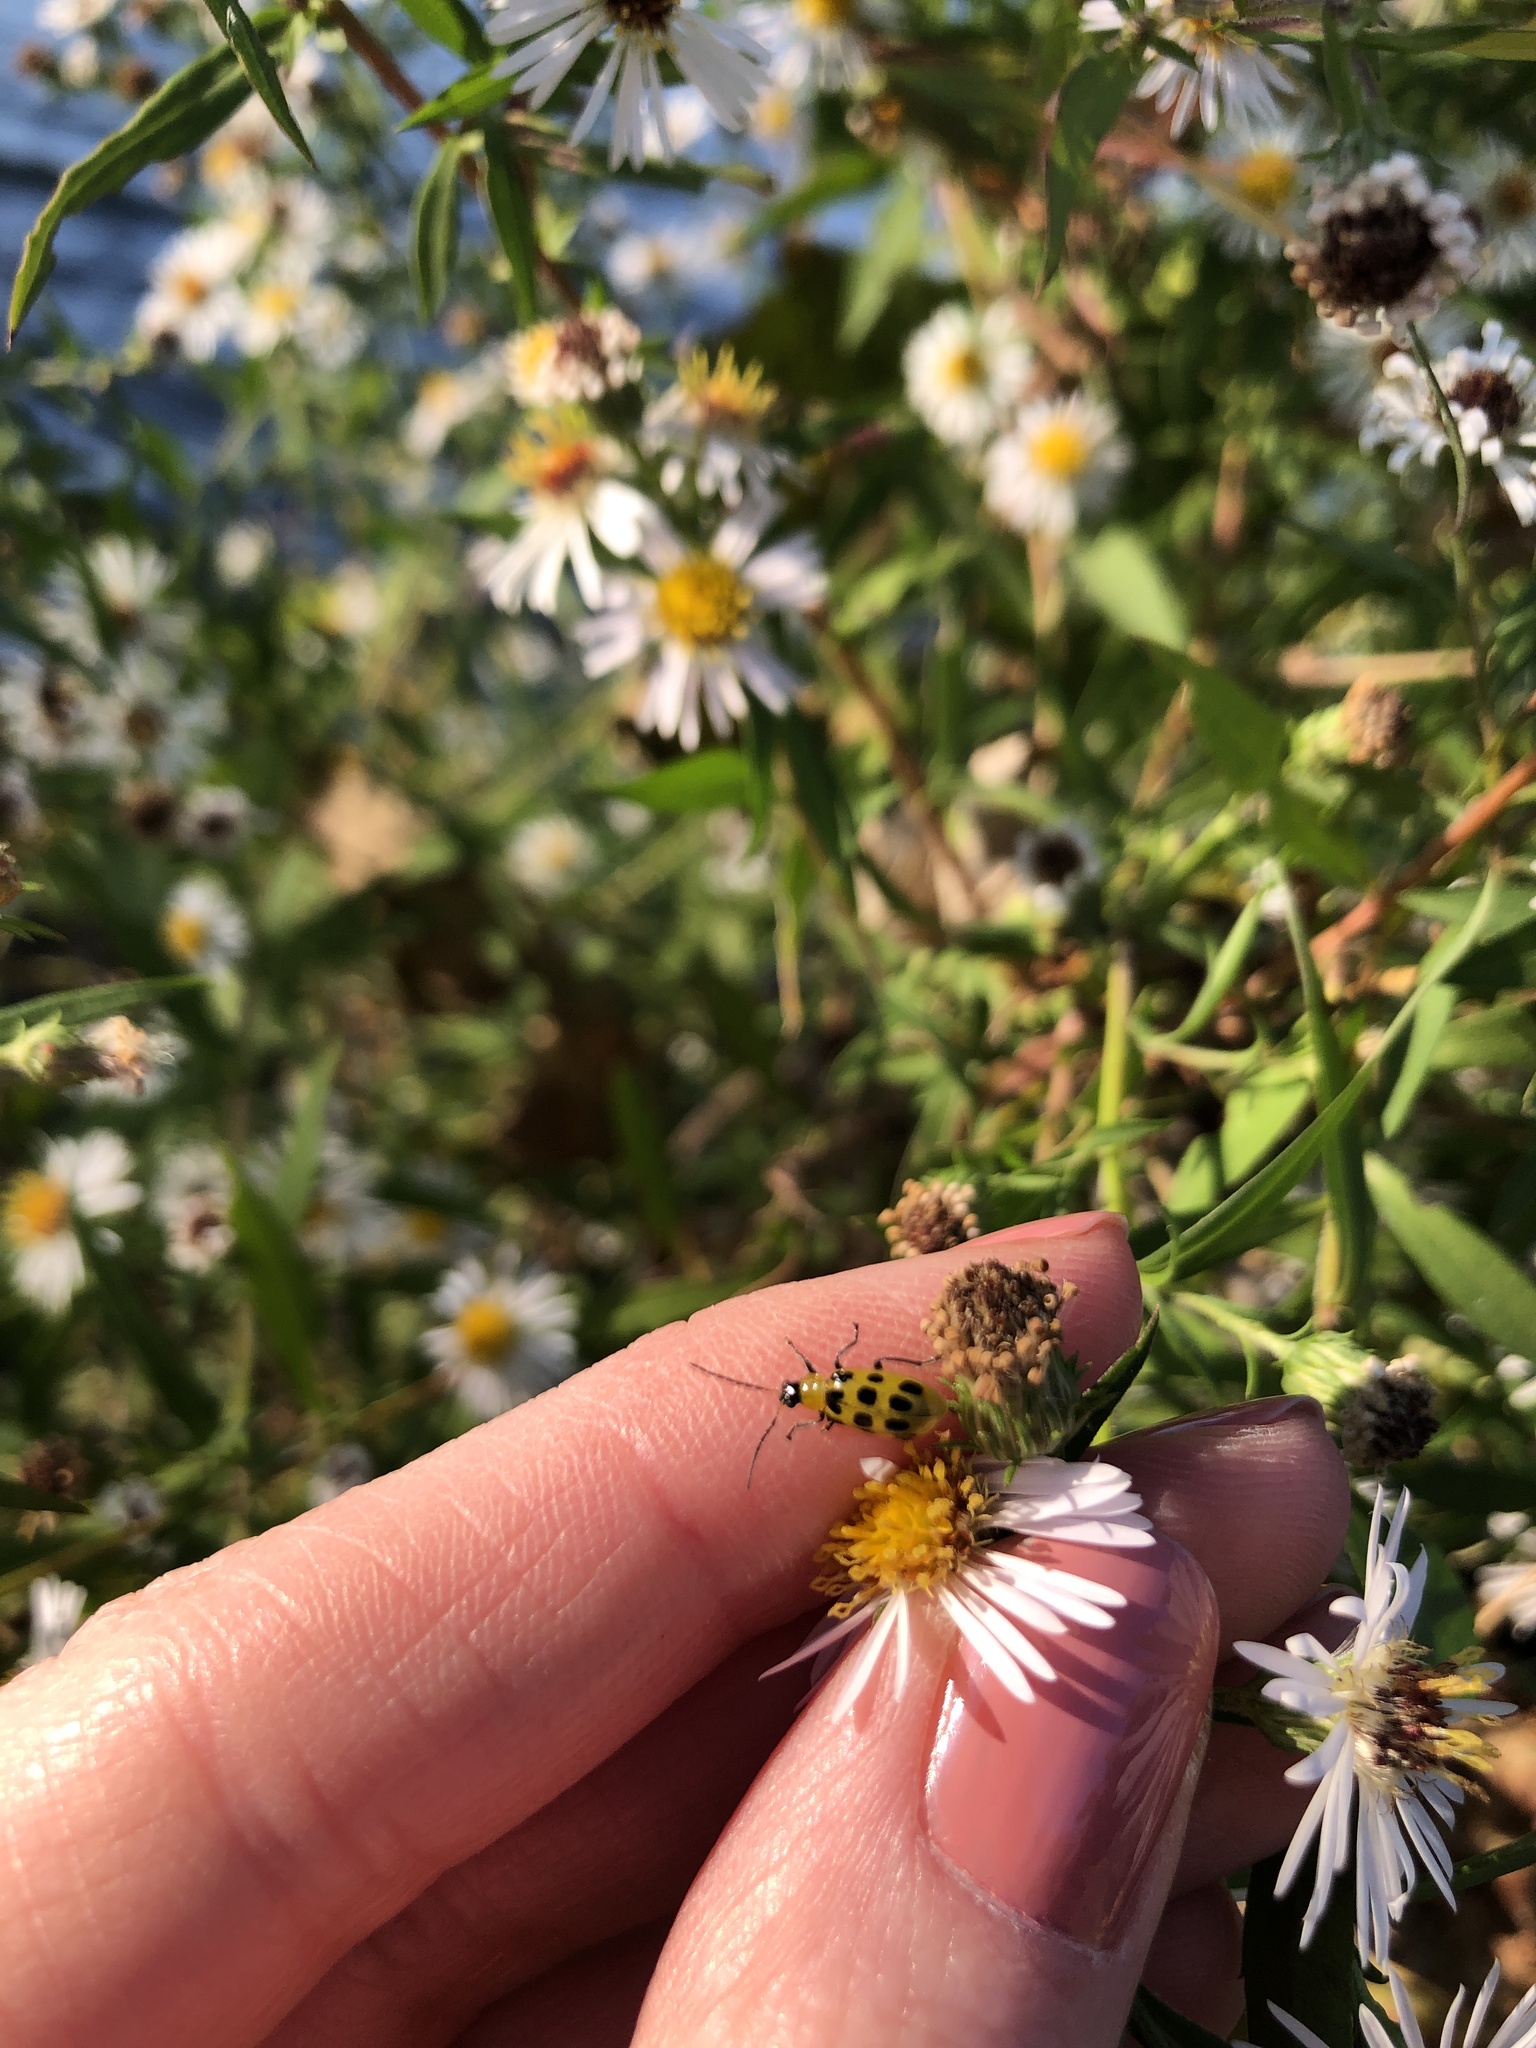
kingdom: Animalia
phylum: Arthropoda
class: Insecta
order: Coleoptera
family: Chrysomelidae
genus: Diabrotica
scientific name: Diabrotica undecimpunctata
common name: Spotted cucumber beetle
